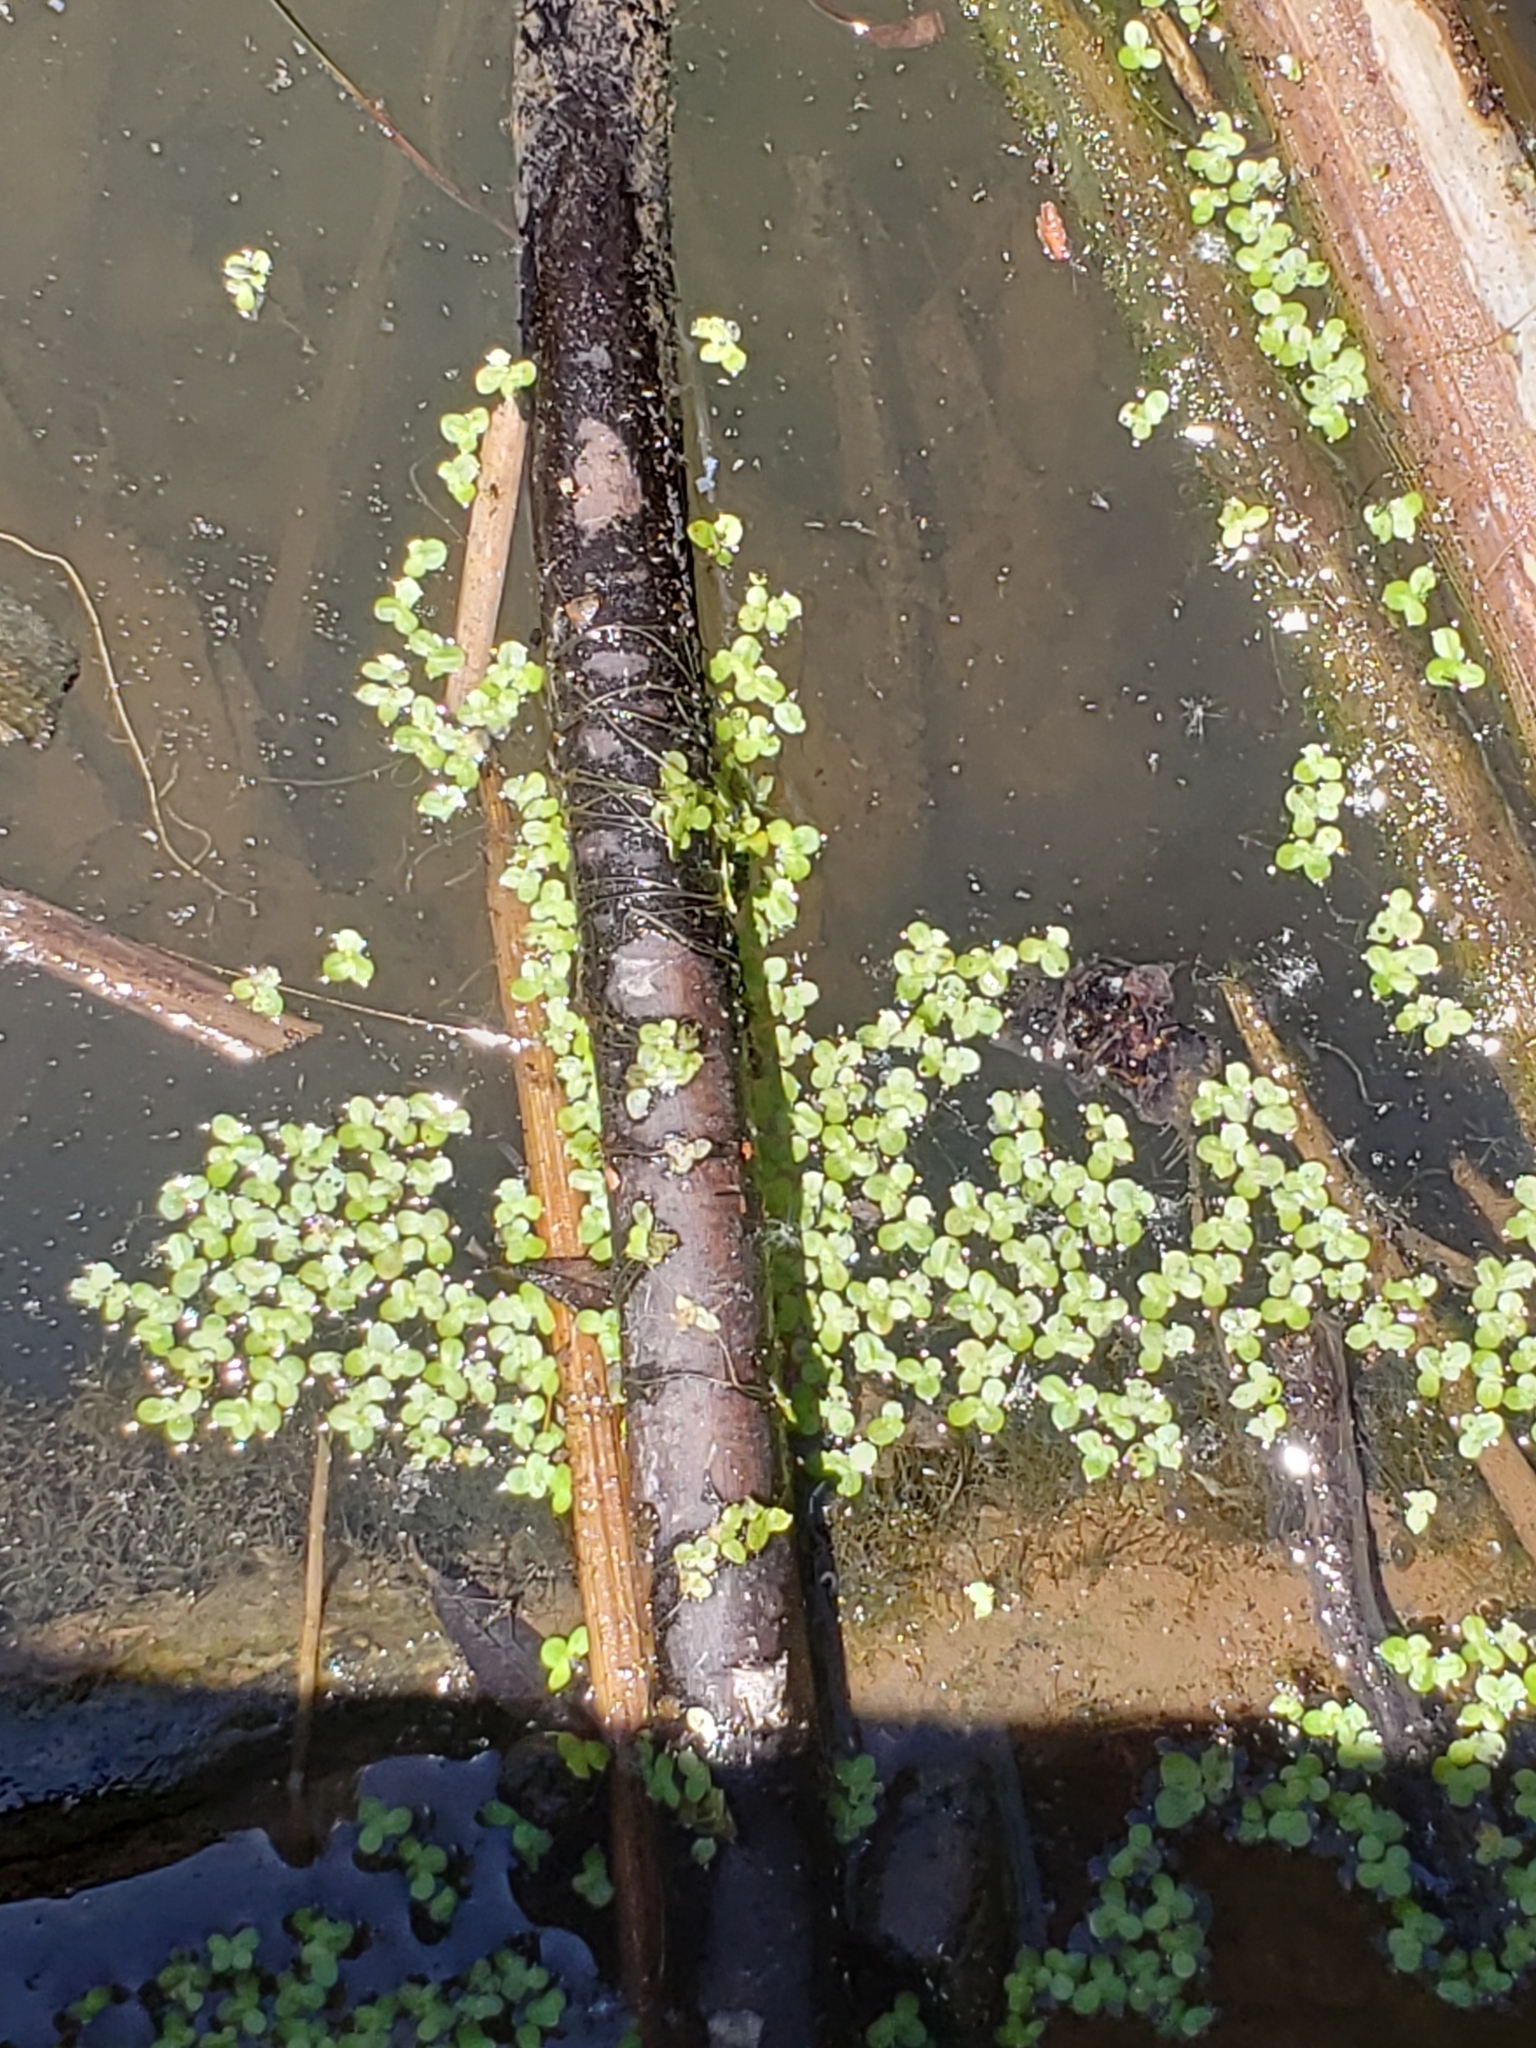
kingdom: Plantae
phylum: Tracheophyta
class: Liliopsida
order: Alismatales
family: Araceae
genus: Lemna
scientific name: Lemna minor
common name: Common duckweed
